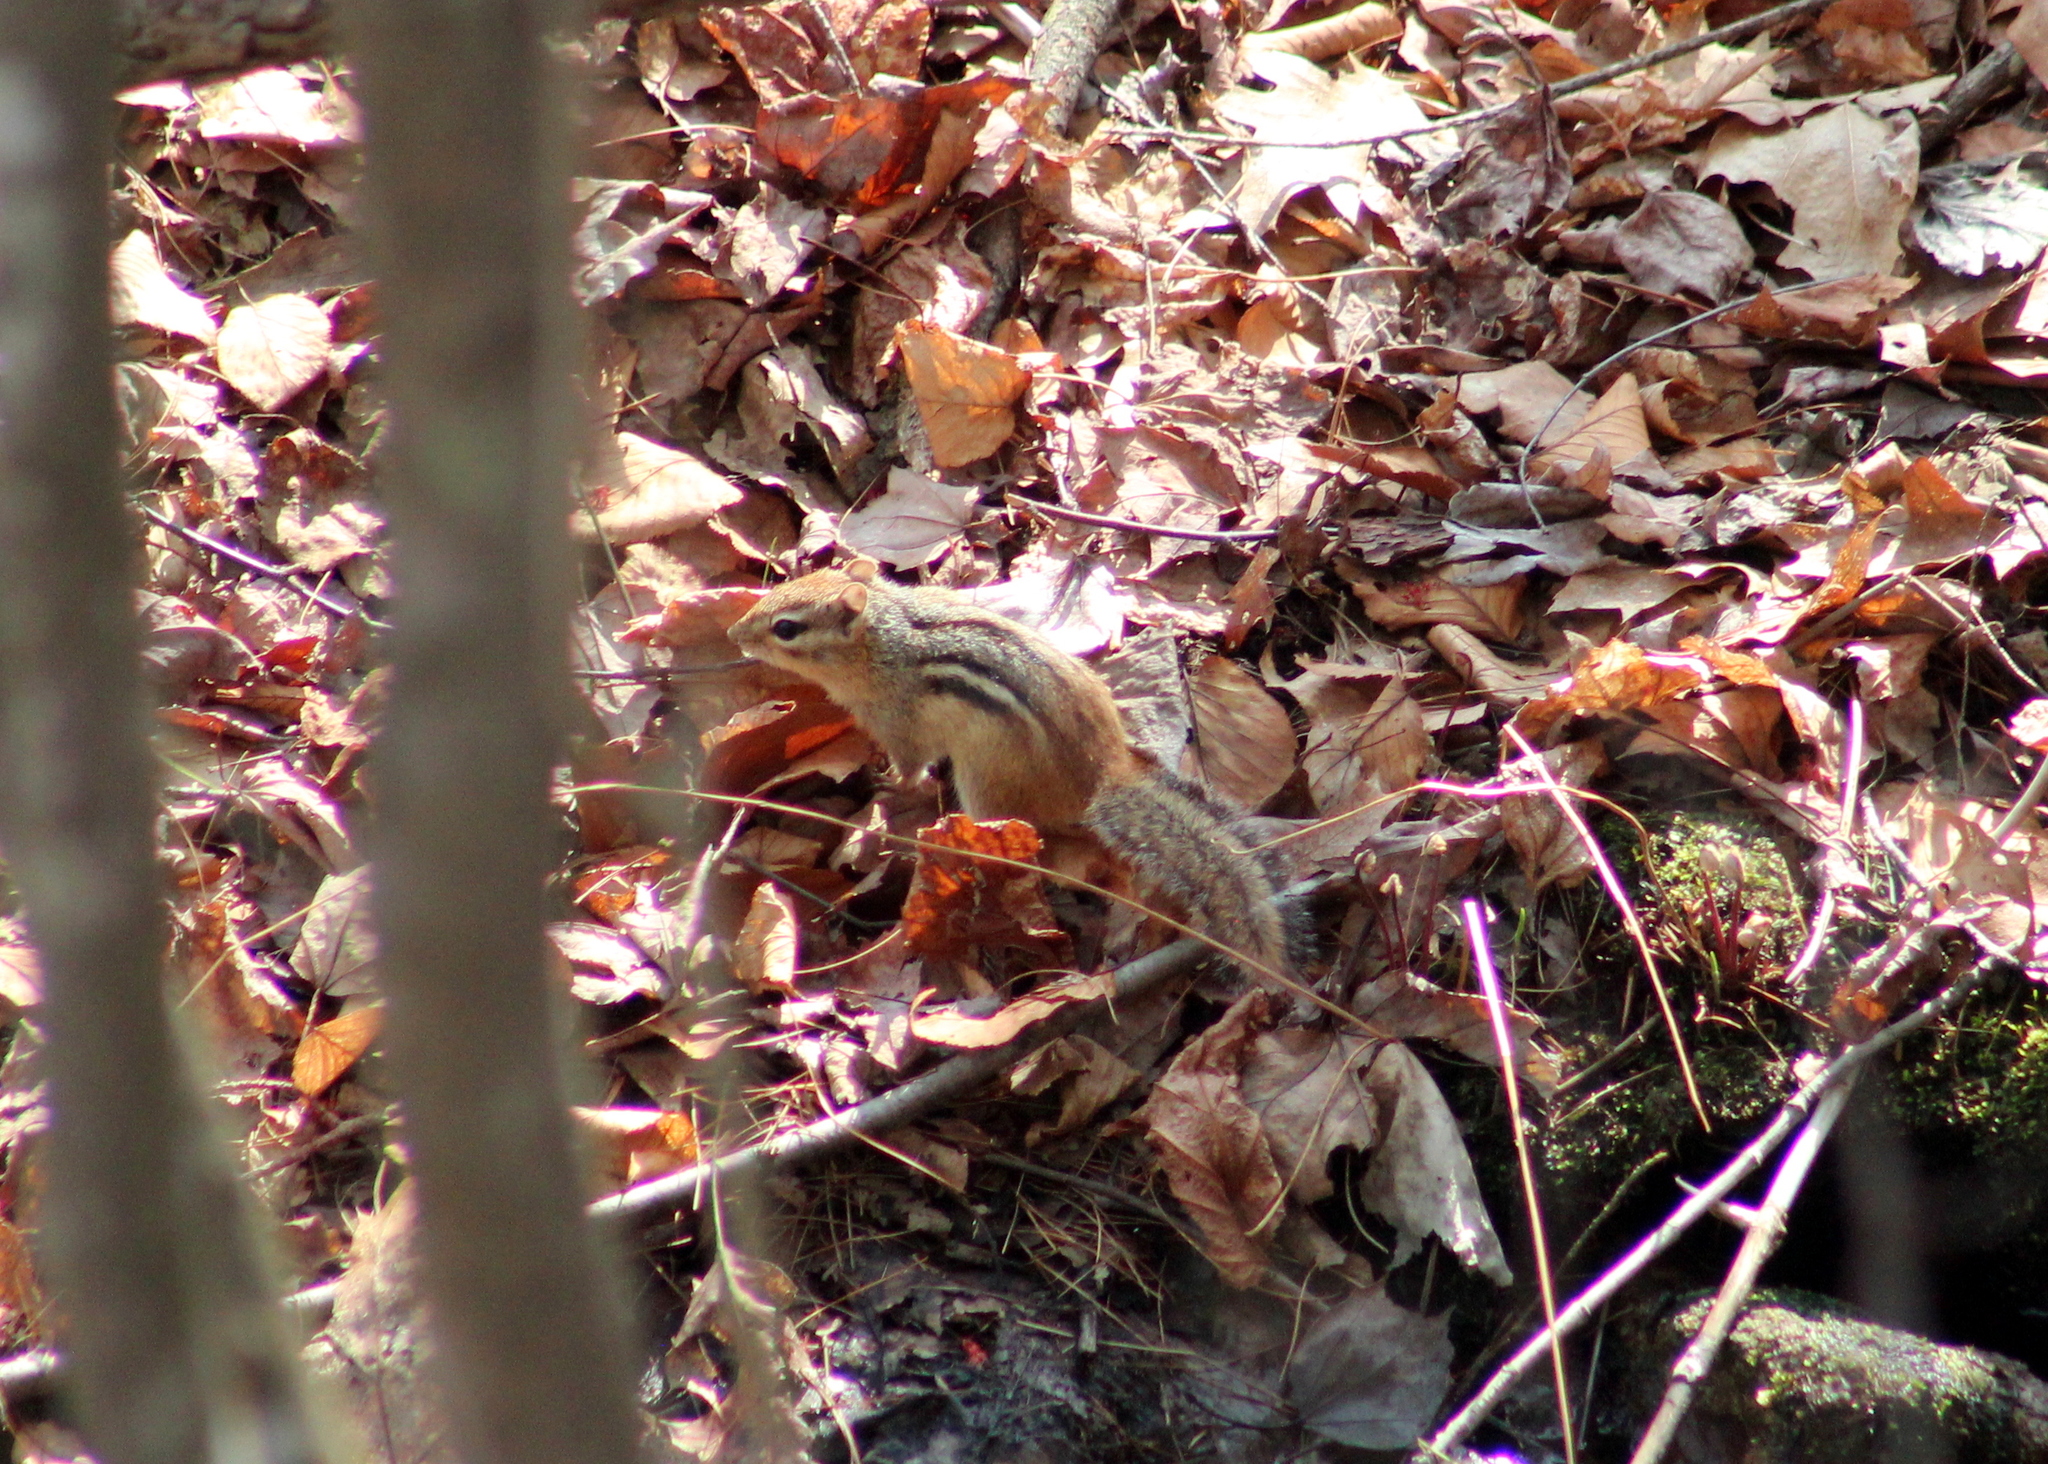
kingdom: Animalia
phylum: Chordata
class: Mammalia
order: Rodentia
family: Sciuridae
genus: Tamias
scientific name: Tamias striatus
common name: Eastern chipmunk
